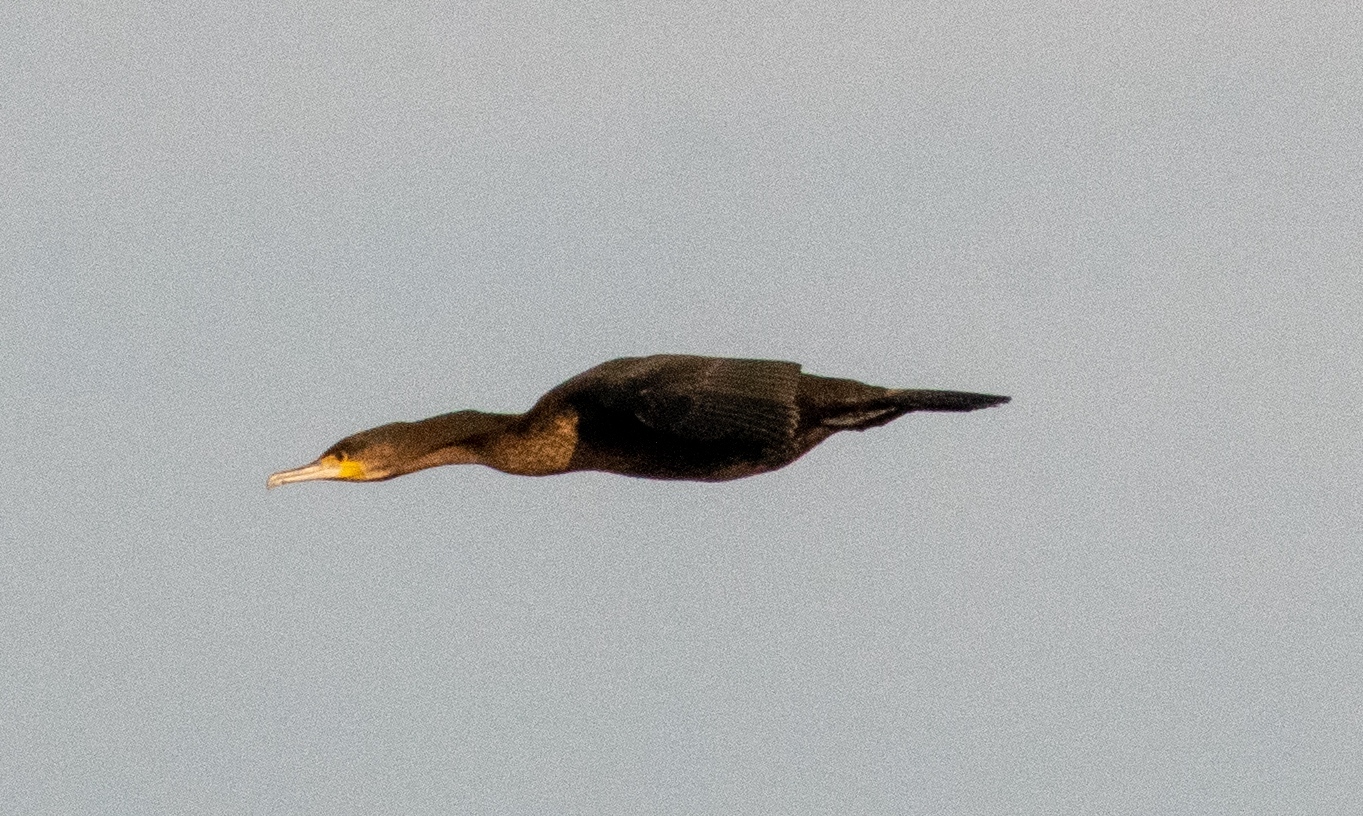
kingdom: Animalia
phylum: Chordata
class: Aves
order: Suliformes
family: Phalacrocoracidae
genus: Phalacrocorax
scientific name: Phalacrocorax carbo
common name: Great cormorant
